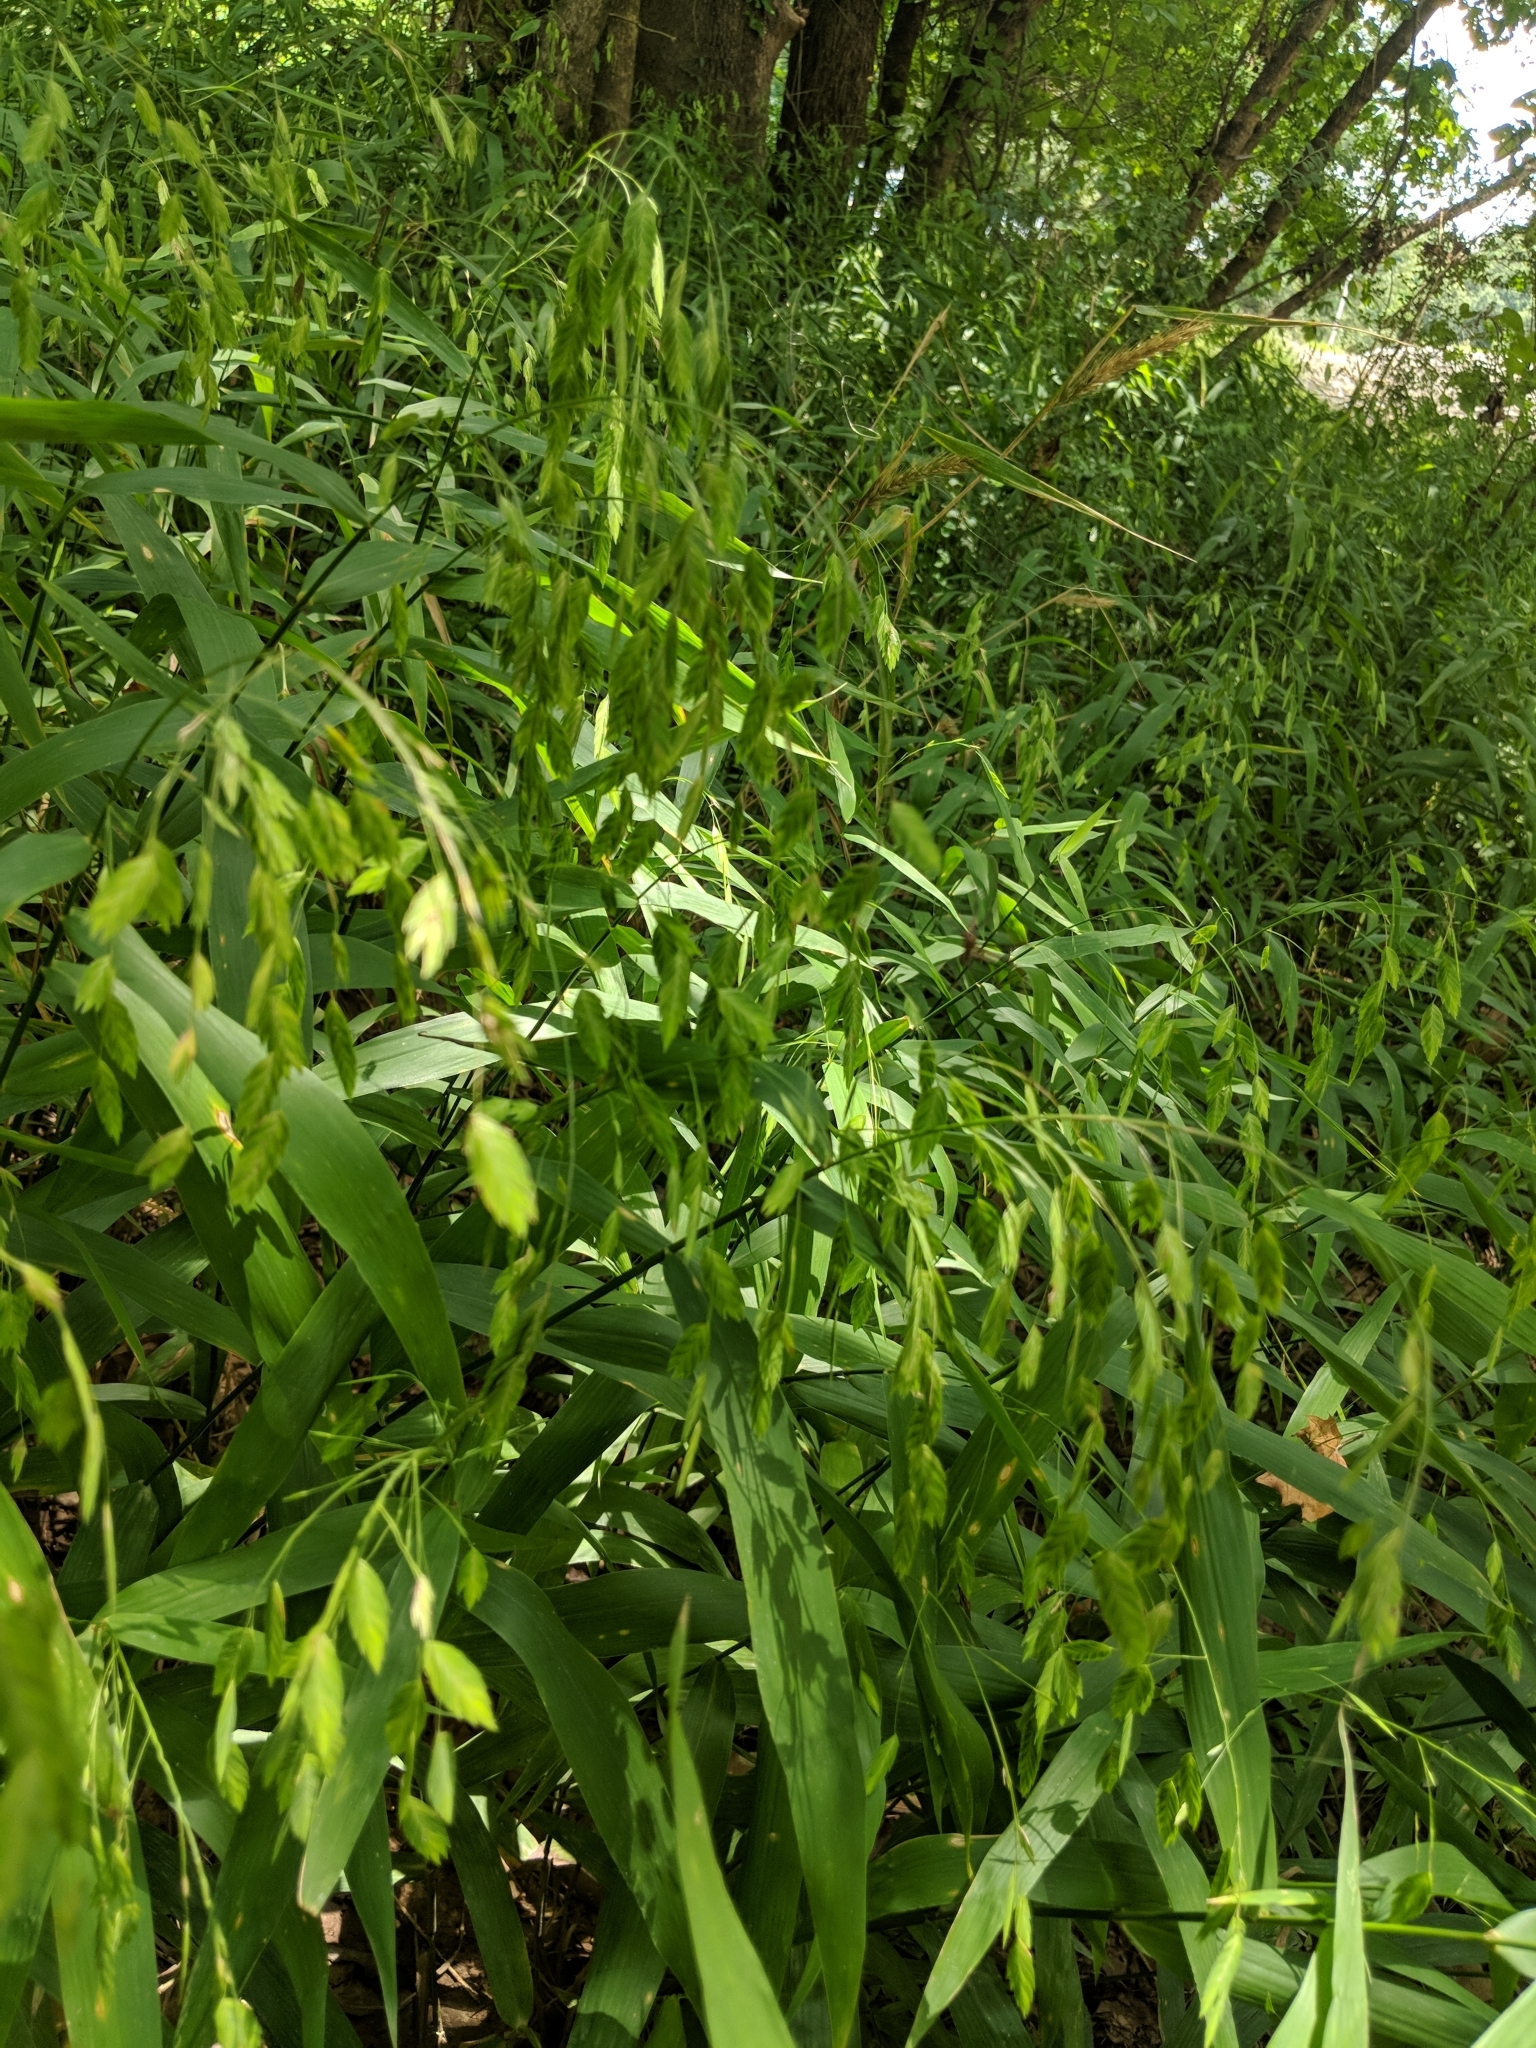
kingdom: Plantae
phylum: Tracheophyta
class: Liliopsida
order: Poales
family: Poaceae
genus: Chasmanthium
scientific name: Chasmanthium latifolium
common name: Broad-leaved chasmanthium
